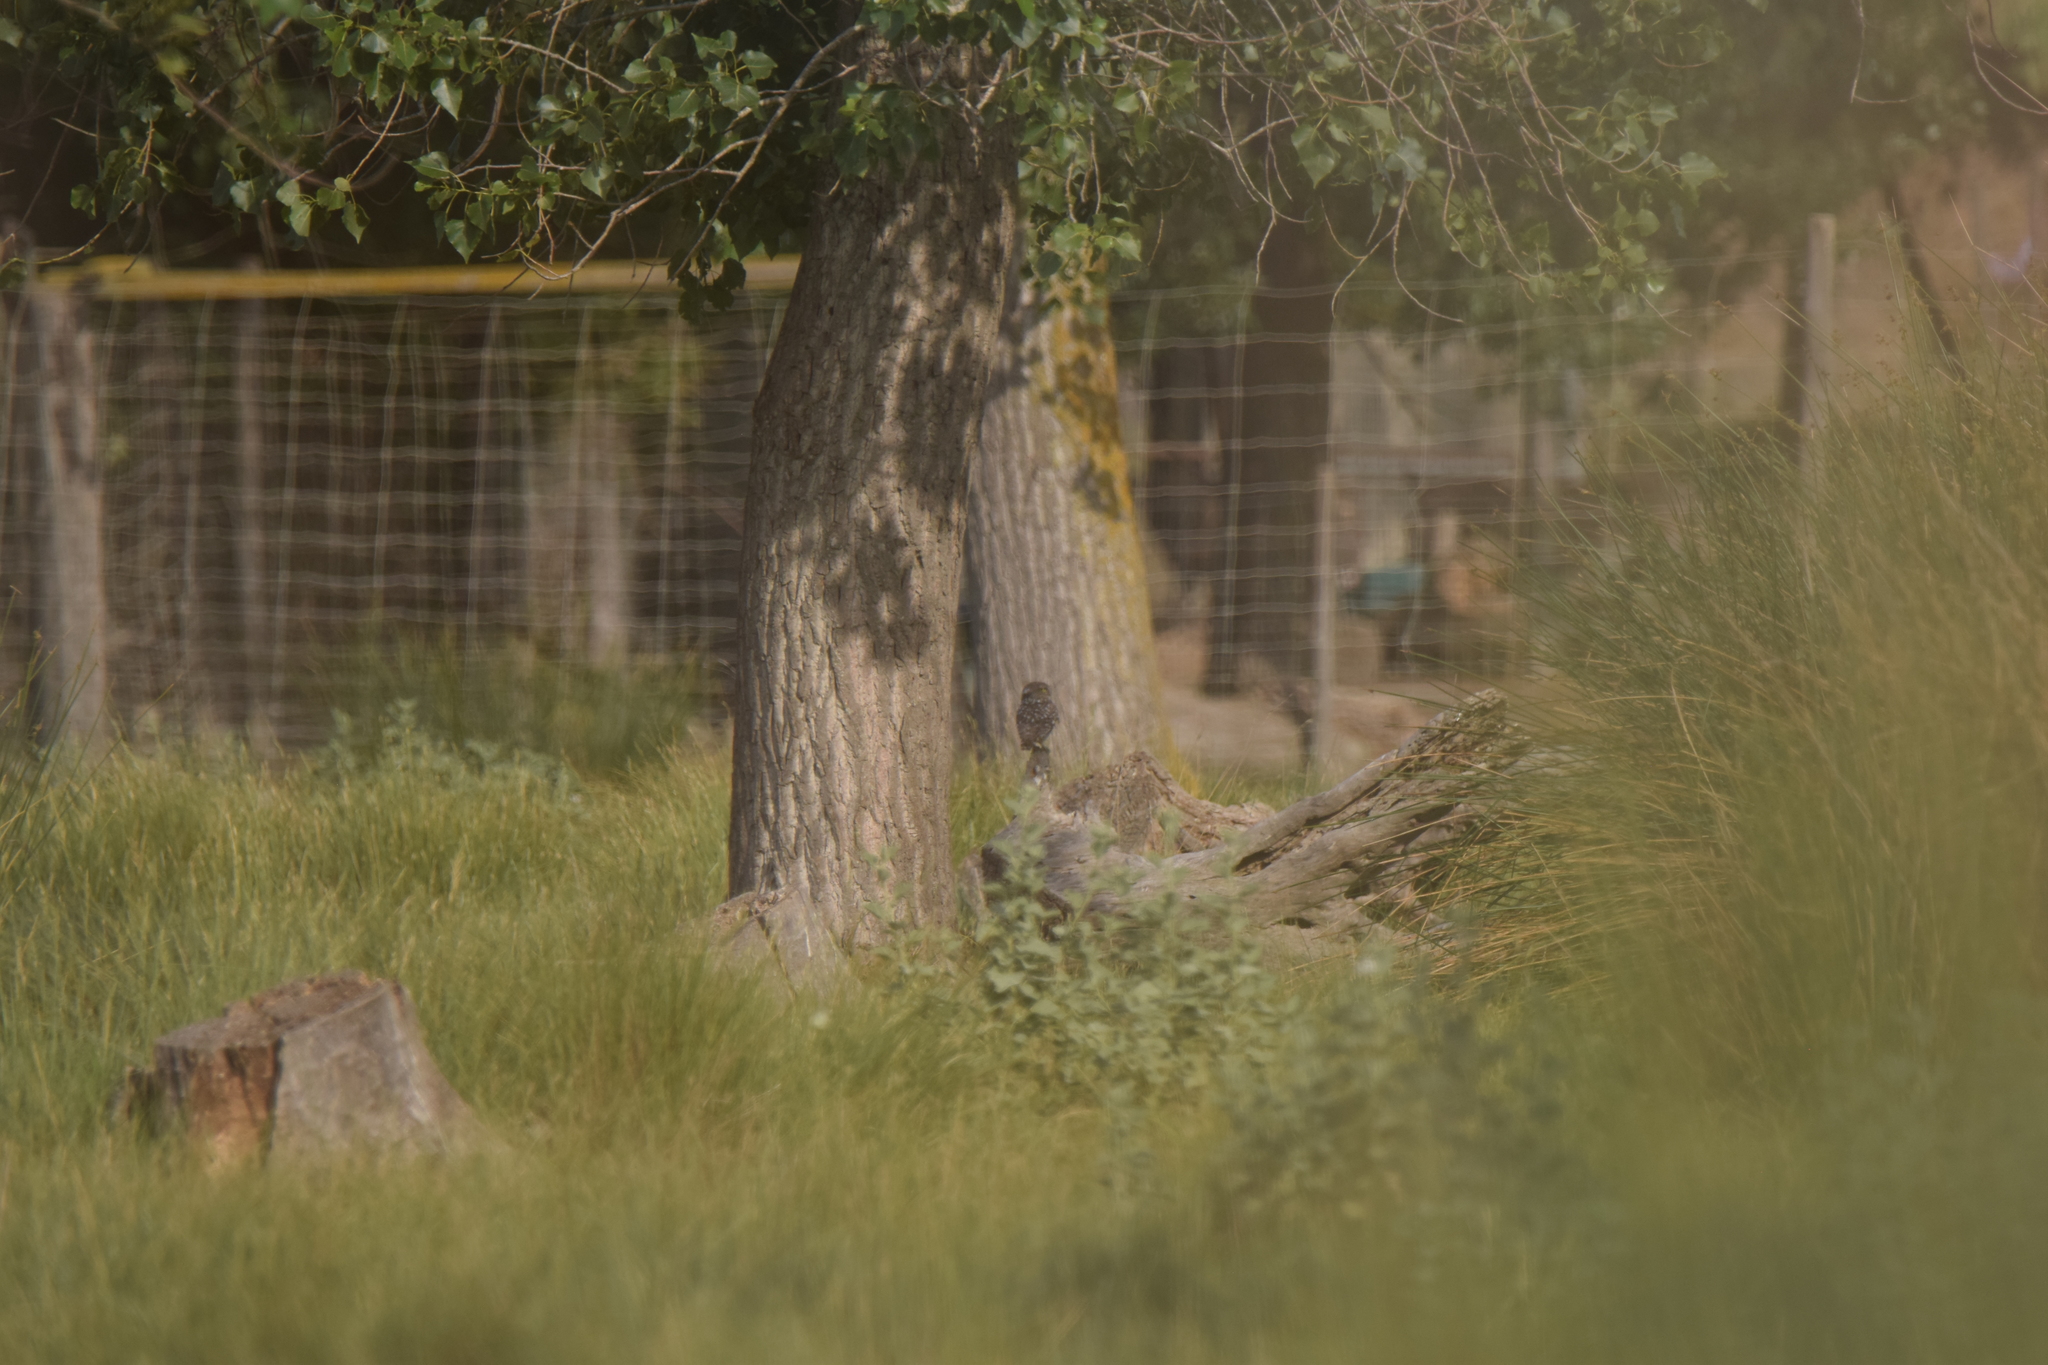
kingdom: Animalia
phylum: Chordata
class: Aves
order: Strigiformes
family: Strigidae
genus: Athene
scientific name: Athene noctua
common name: Little owl
